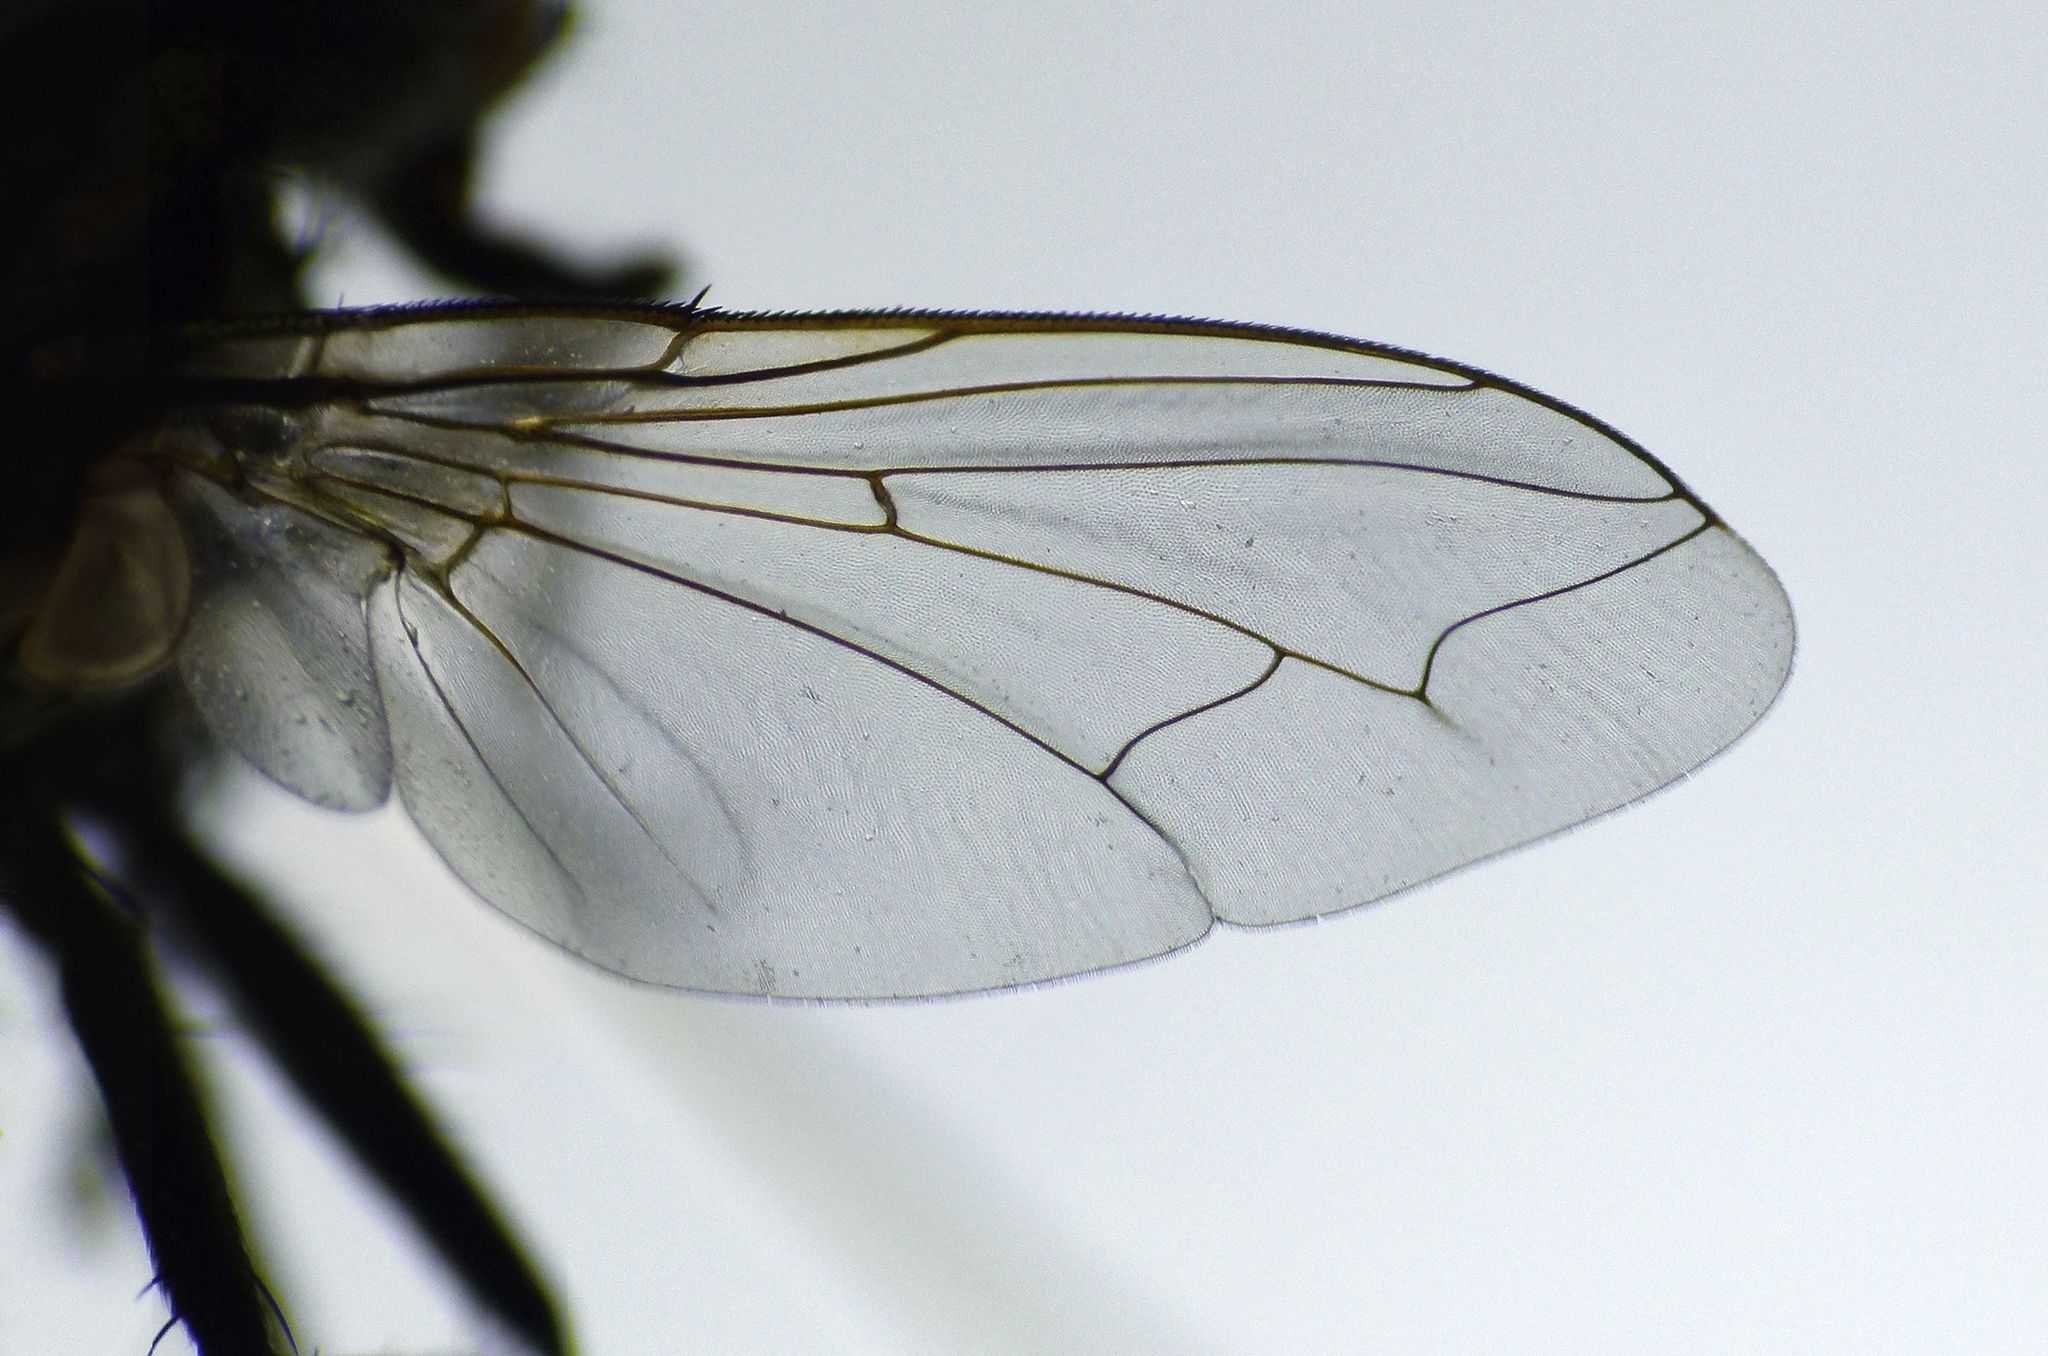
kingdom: Animalia
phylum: Arthropoda
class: Insecta
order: Diptera
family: Sarcophagidae
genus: Oxysarcodexia
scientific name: Oxysarcodexia varia
